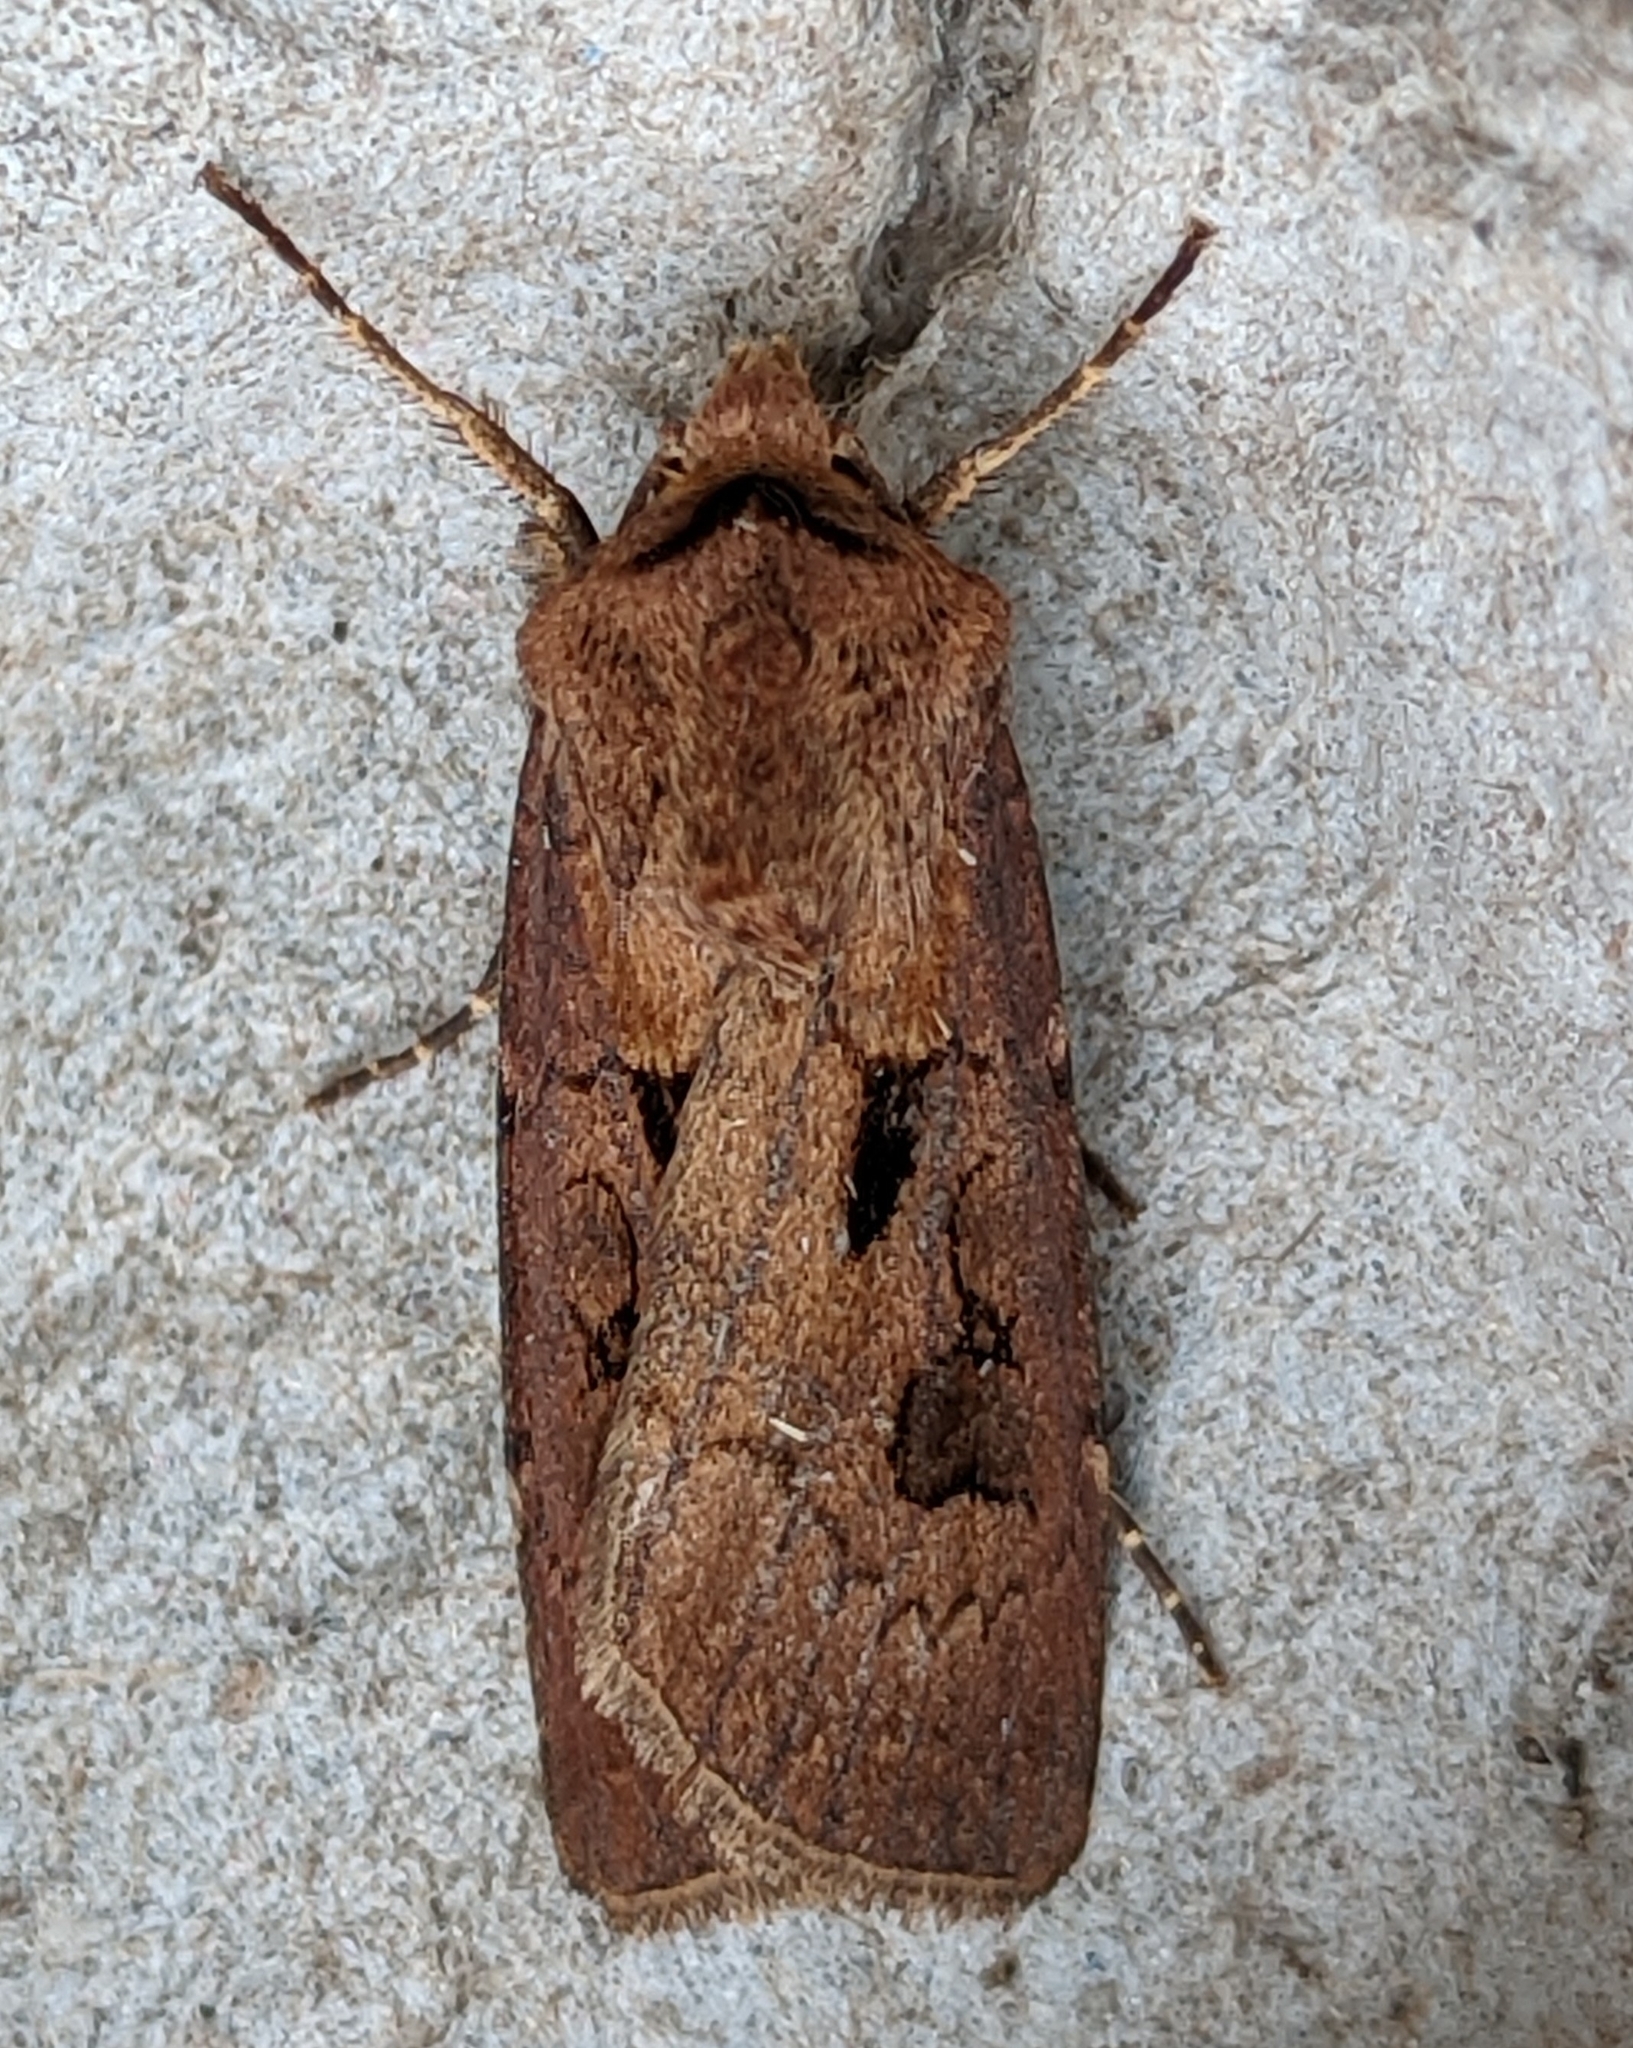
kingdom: Animalia
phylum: Arthropoda
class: Insecta
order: Lepidoptera
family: Noctuidae
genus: Agrotis
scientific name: Agrotis exclamationis
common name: Heart and dart
